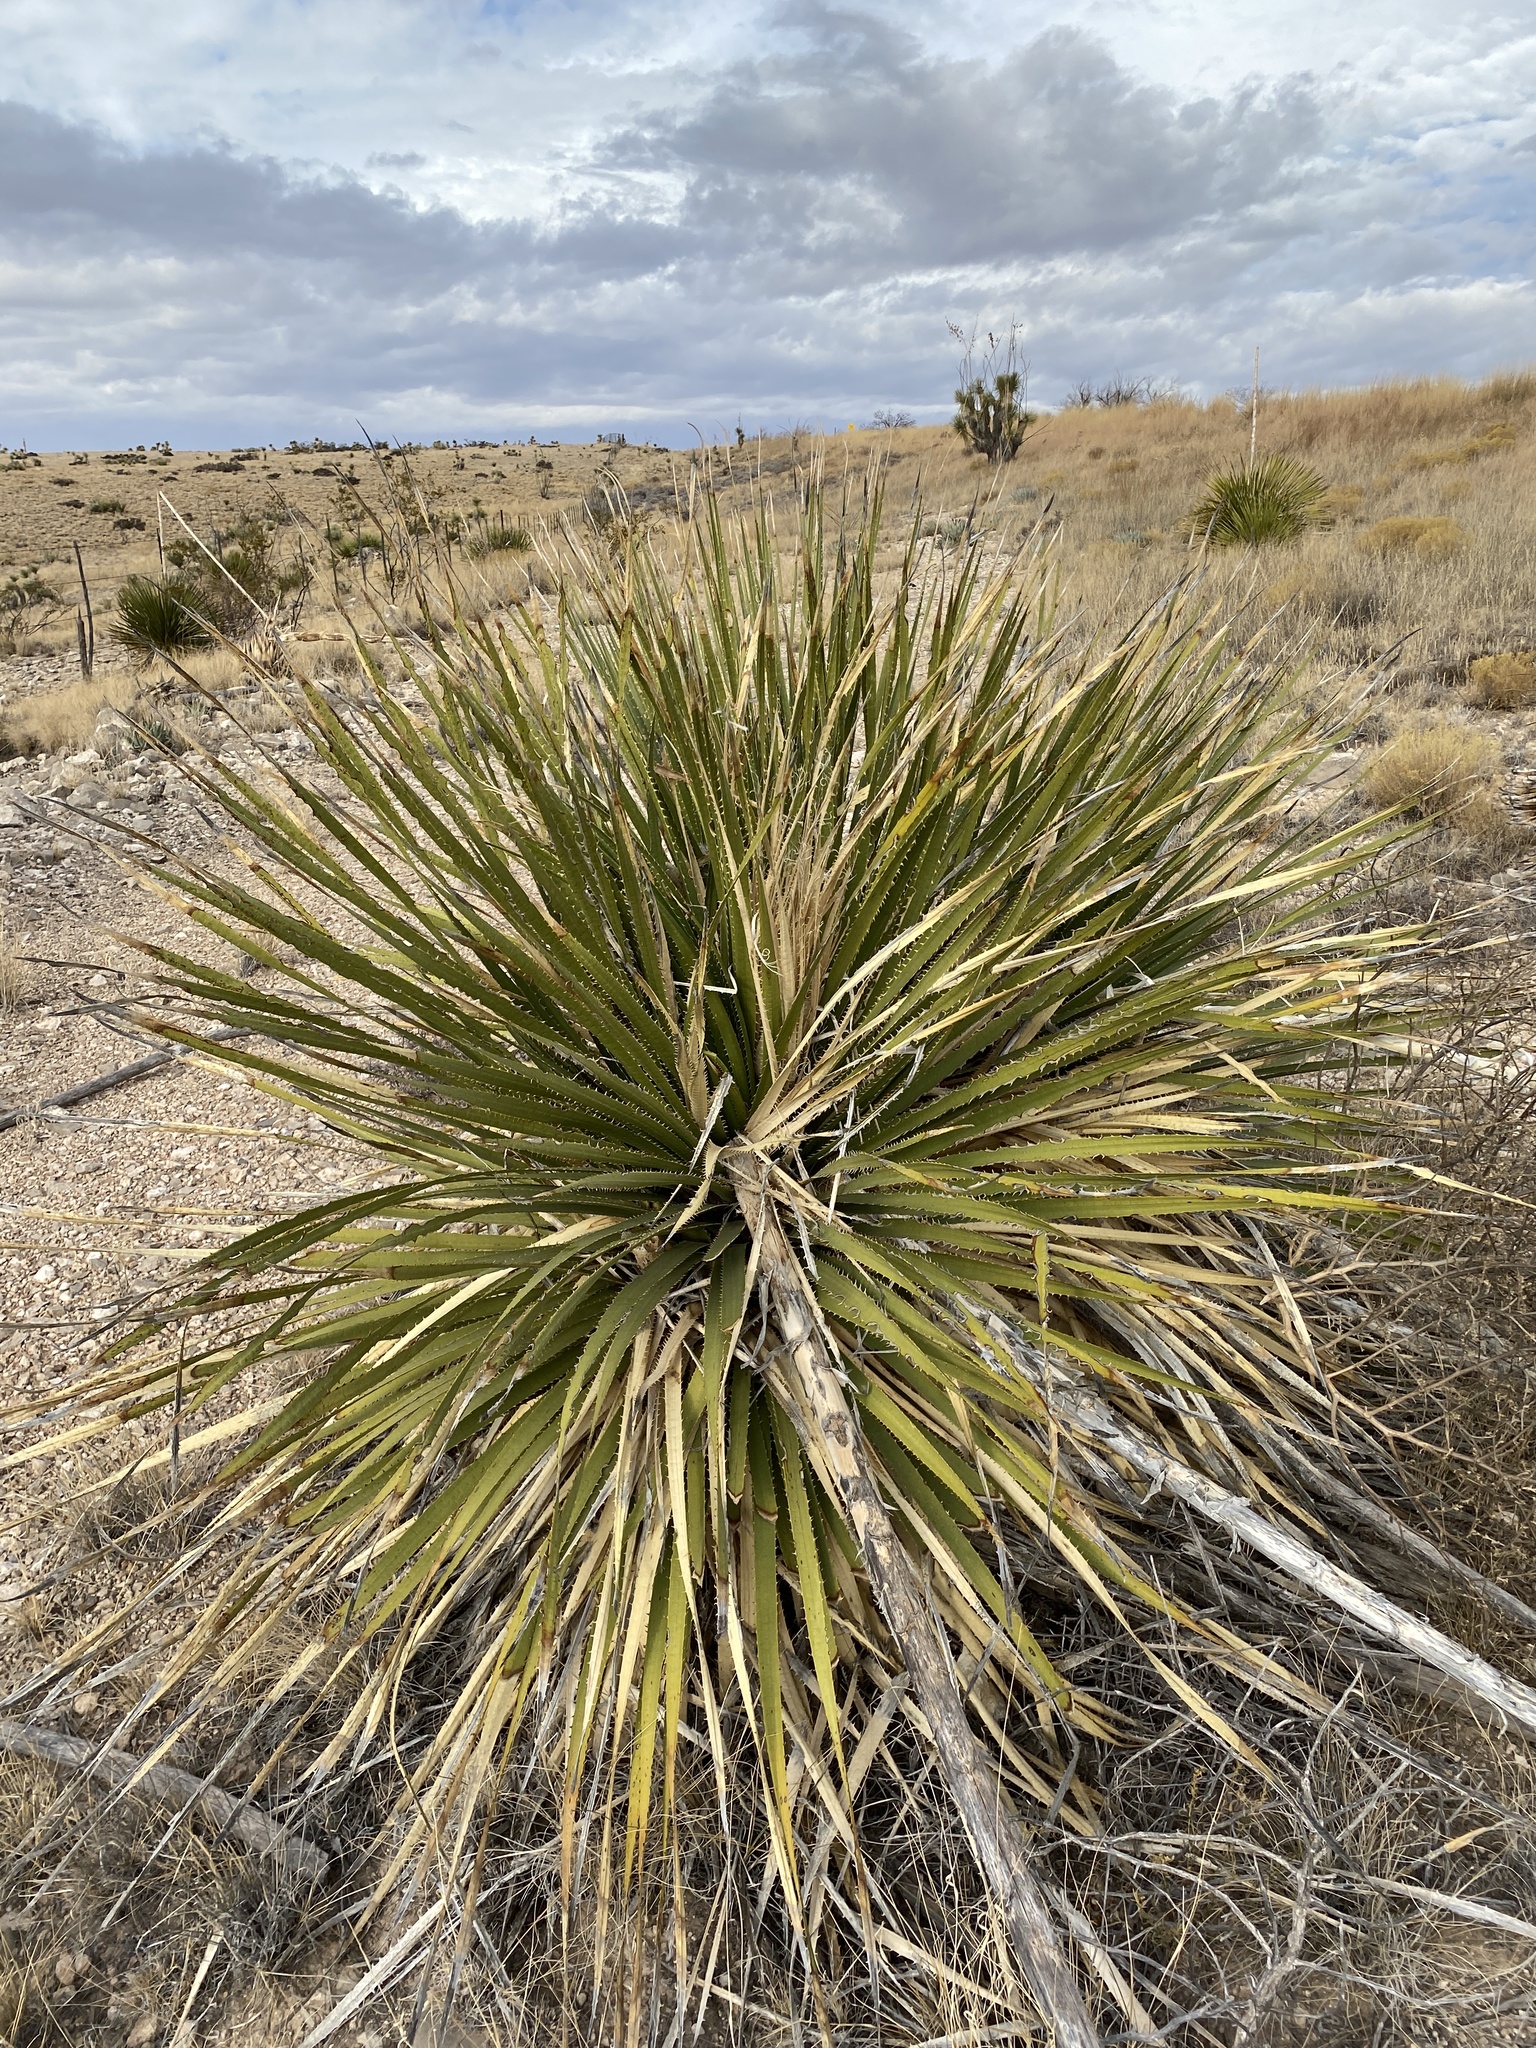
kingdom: Plantae
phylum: Tracheophyta
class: Liliopsida
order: Asparagales
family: Asparagaceae
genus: Dasylirion
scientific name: Dasylirion leiophyllum
